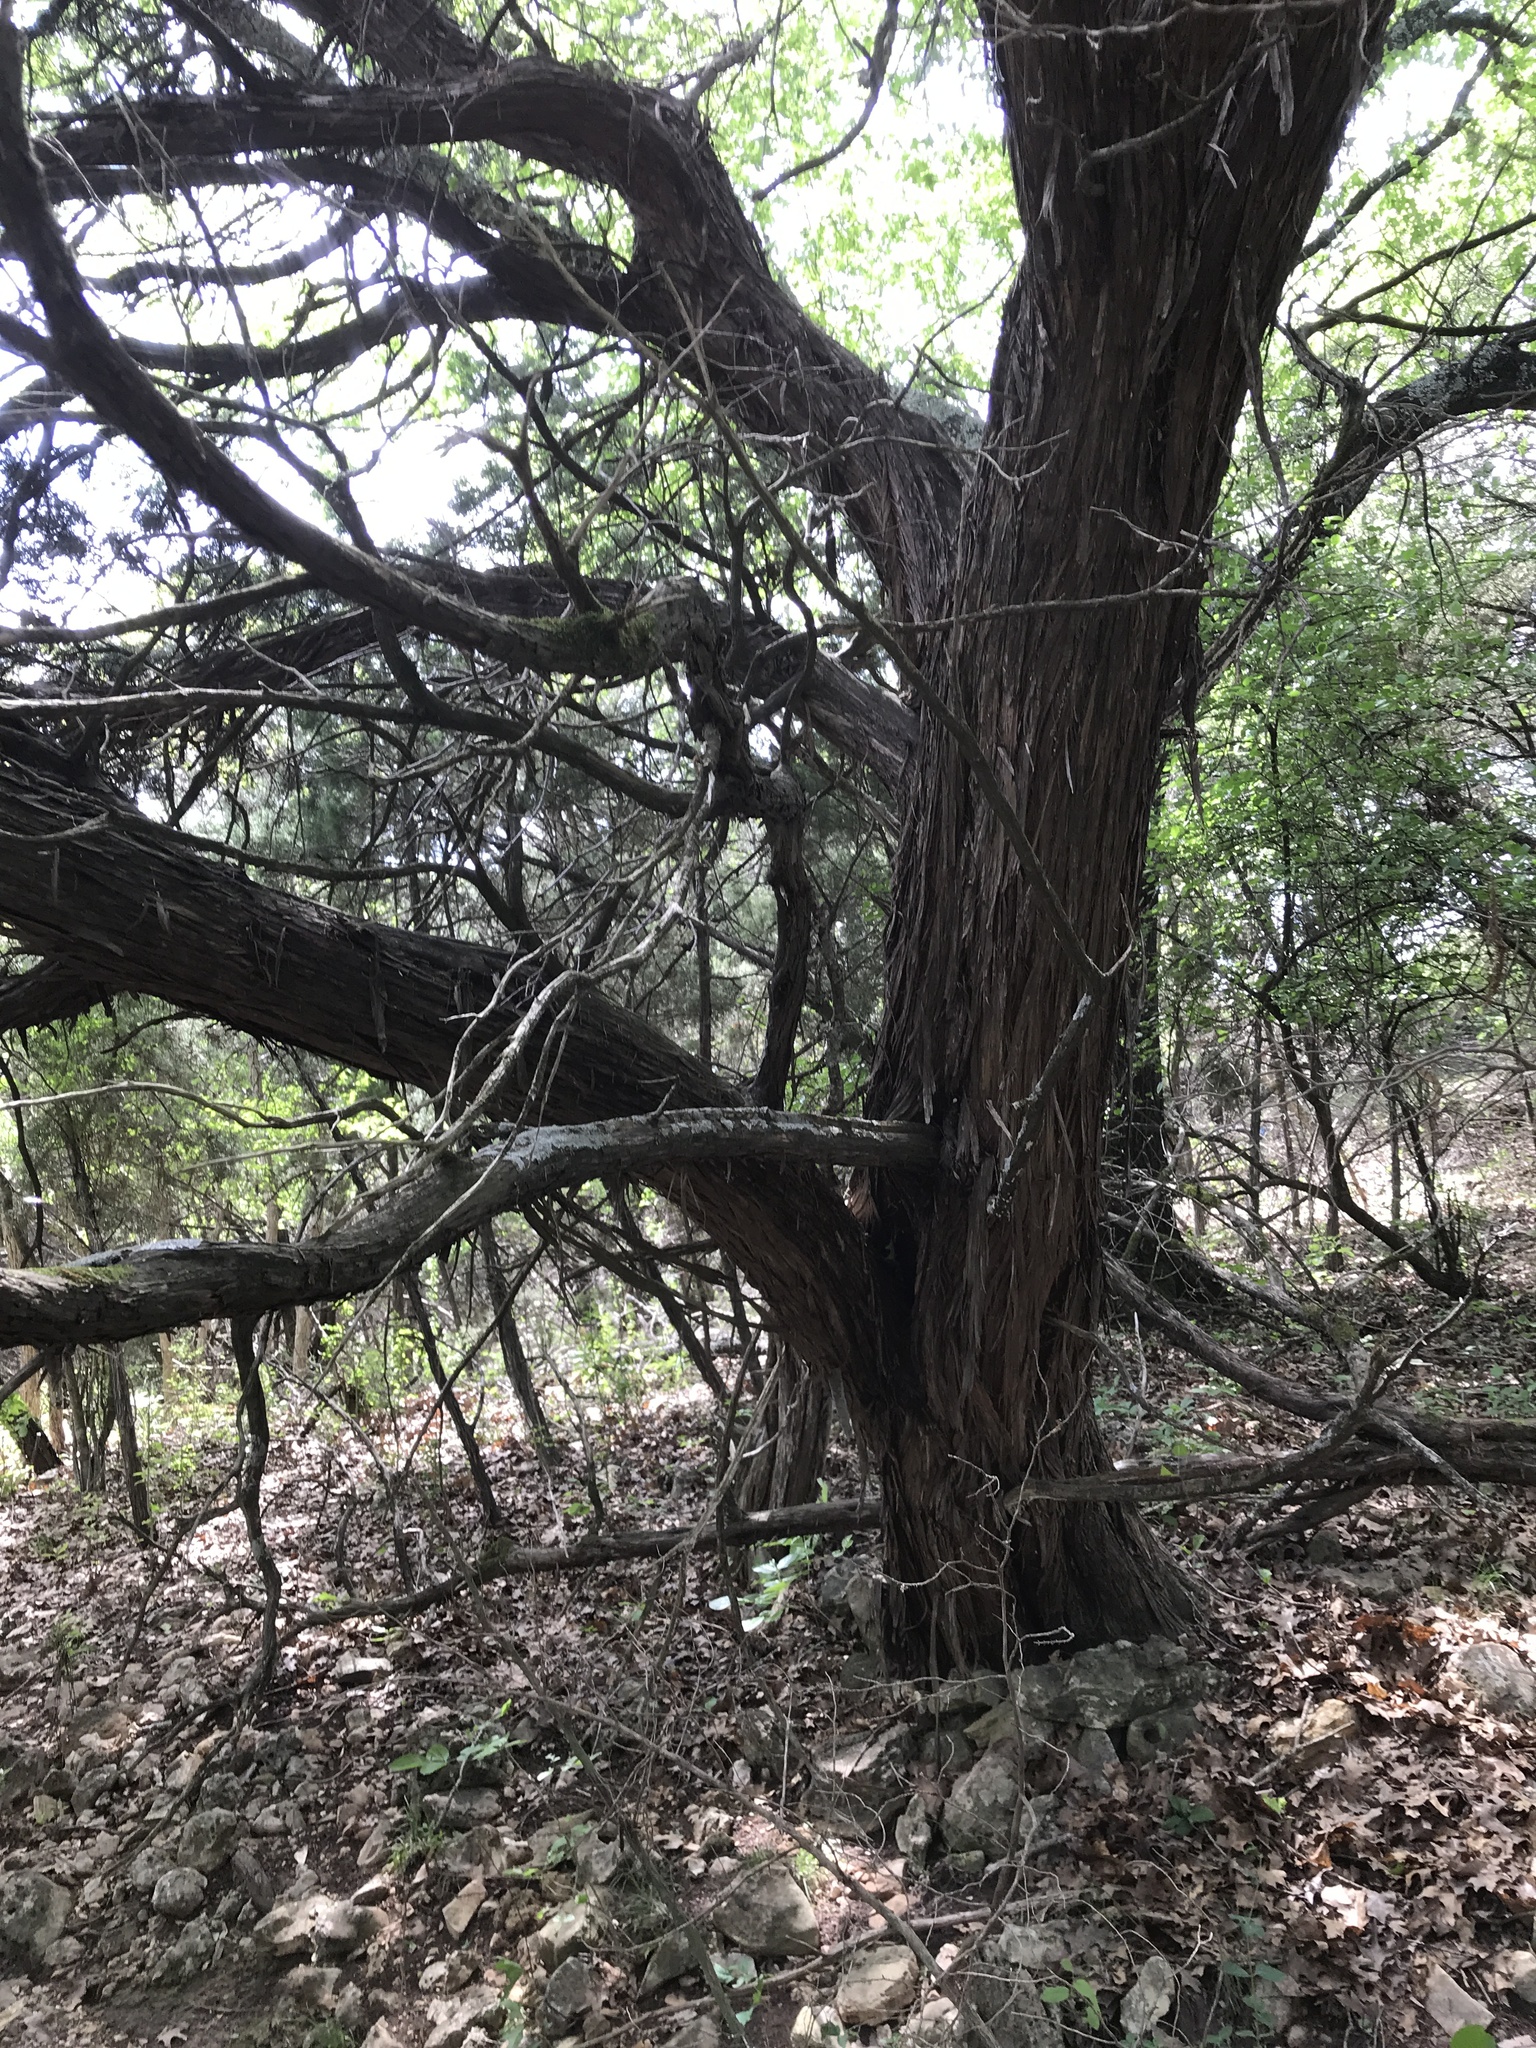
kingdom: Plantae
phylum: Tracheophyta
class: Pinopsida
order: Pinales
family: Cupressaceae
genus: Juniperus
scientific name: Juniperus ashei
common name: Mexican juniper
